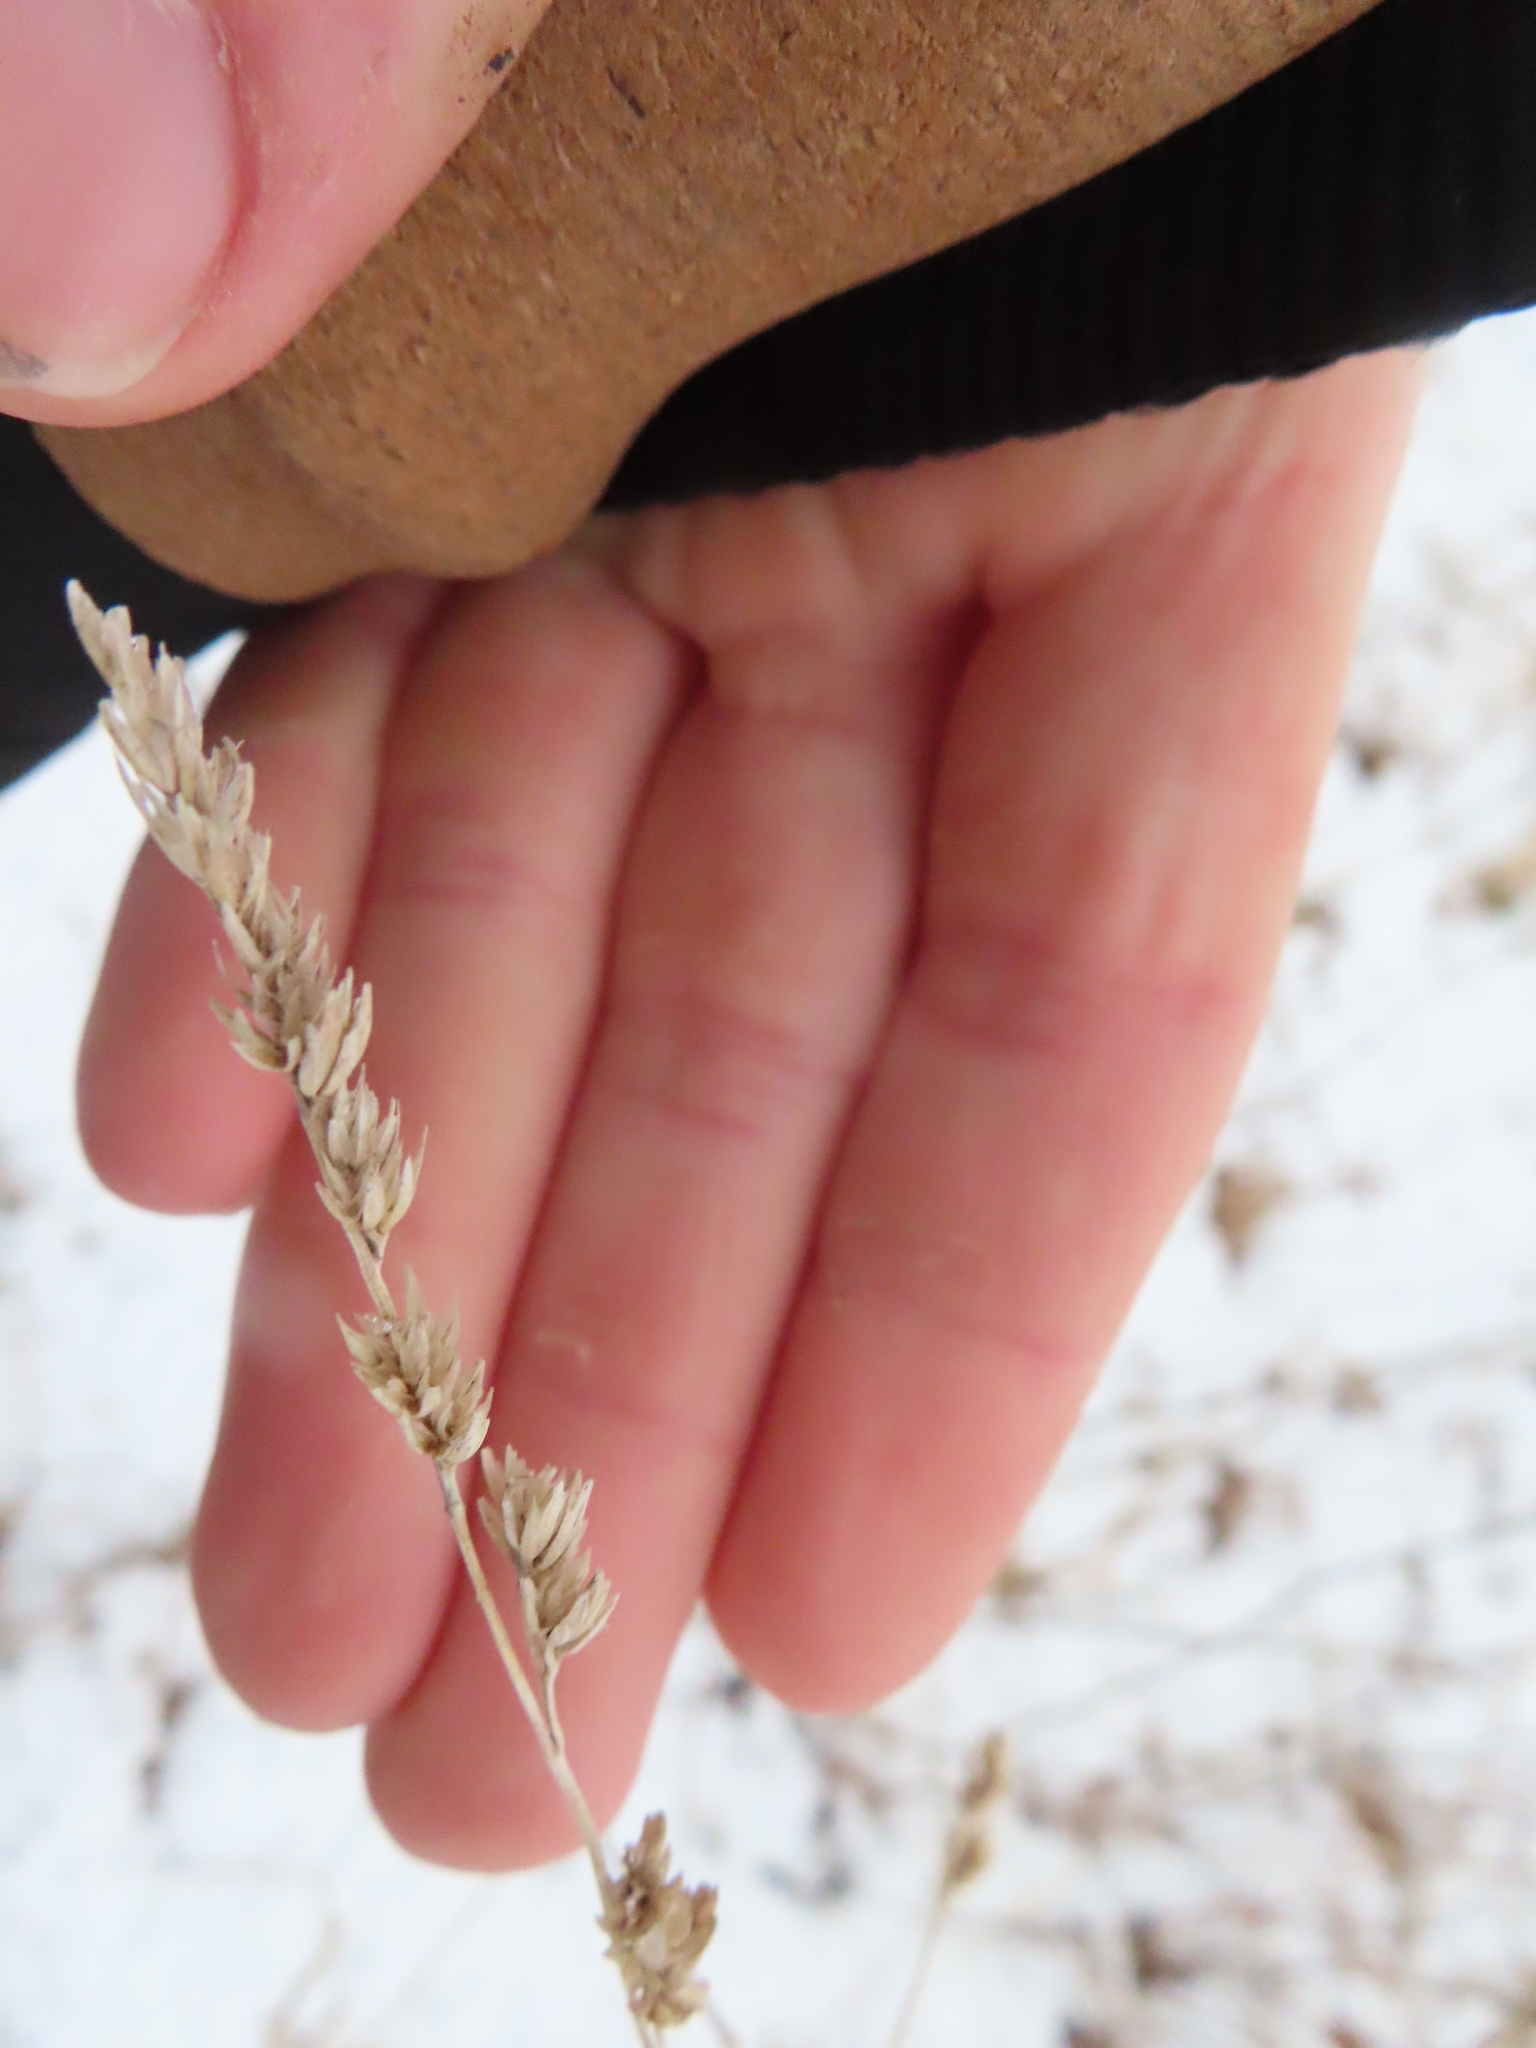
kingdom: Plantae
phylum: Tracheophyta
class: Liliopsida
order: Poales
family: Poaceae
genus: Dactylis
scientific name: Dactylis glomerata
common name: Orchardgrass
